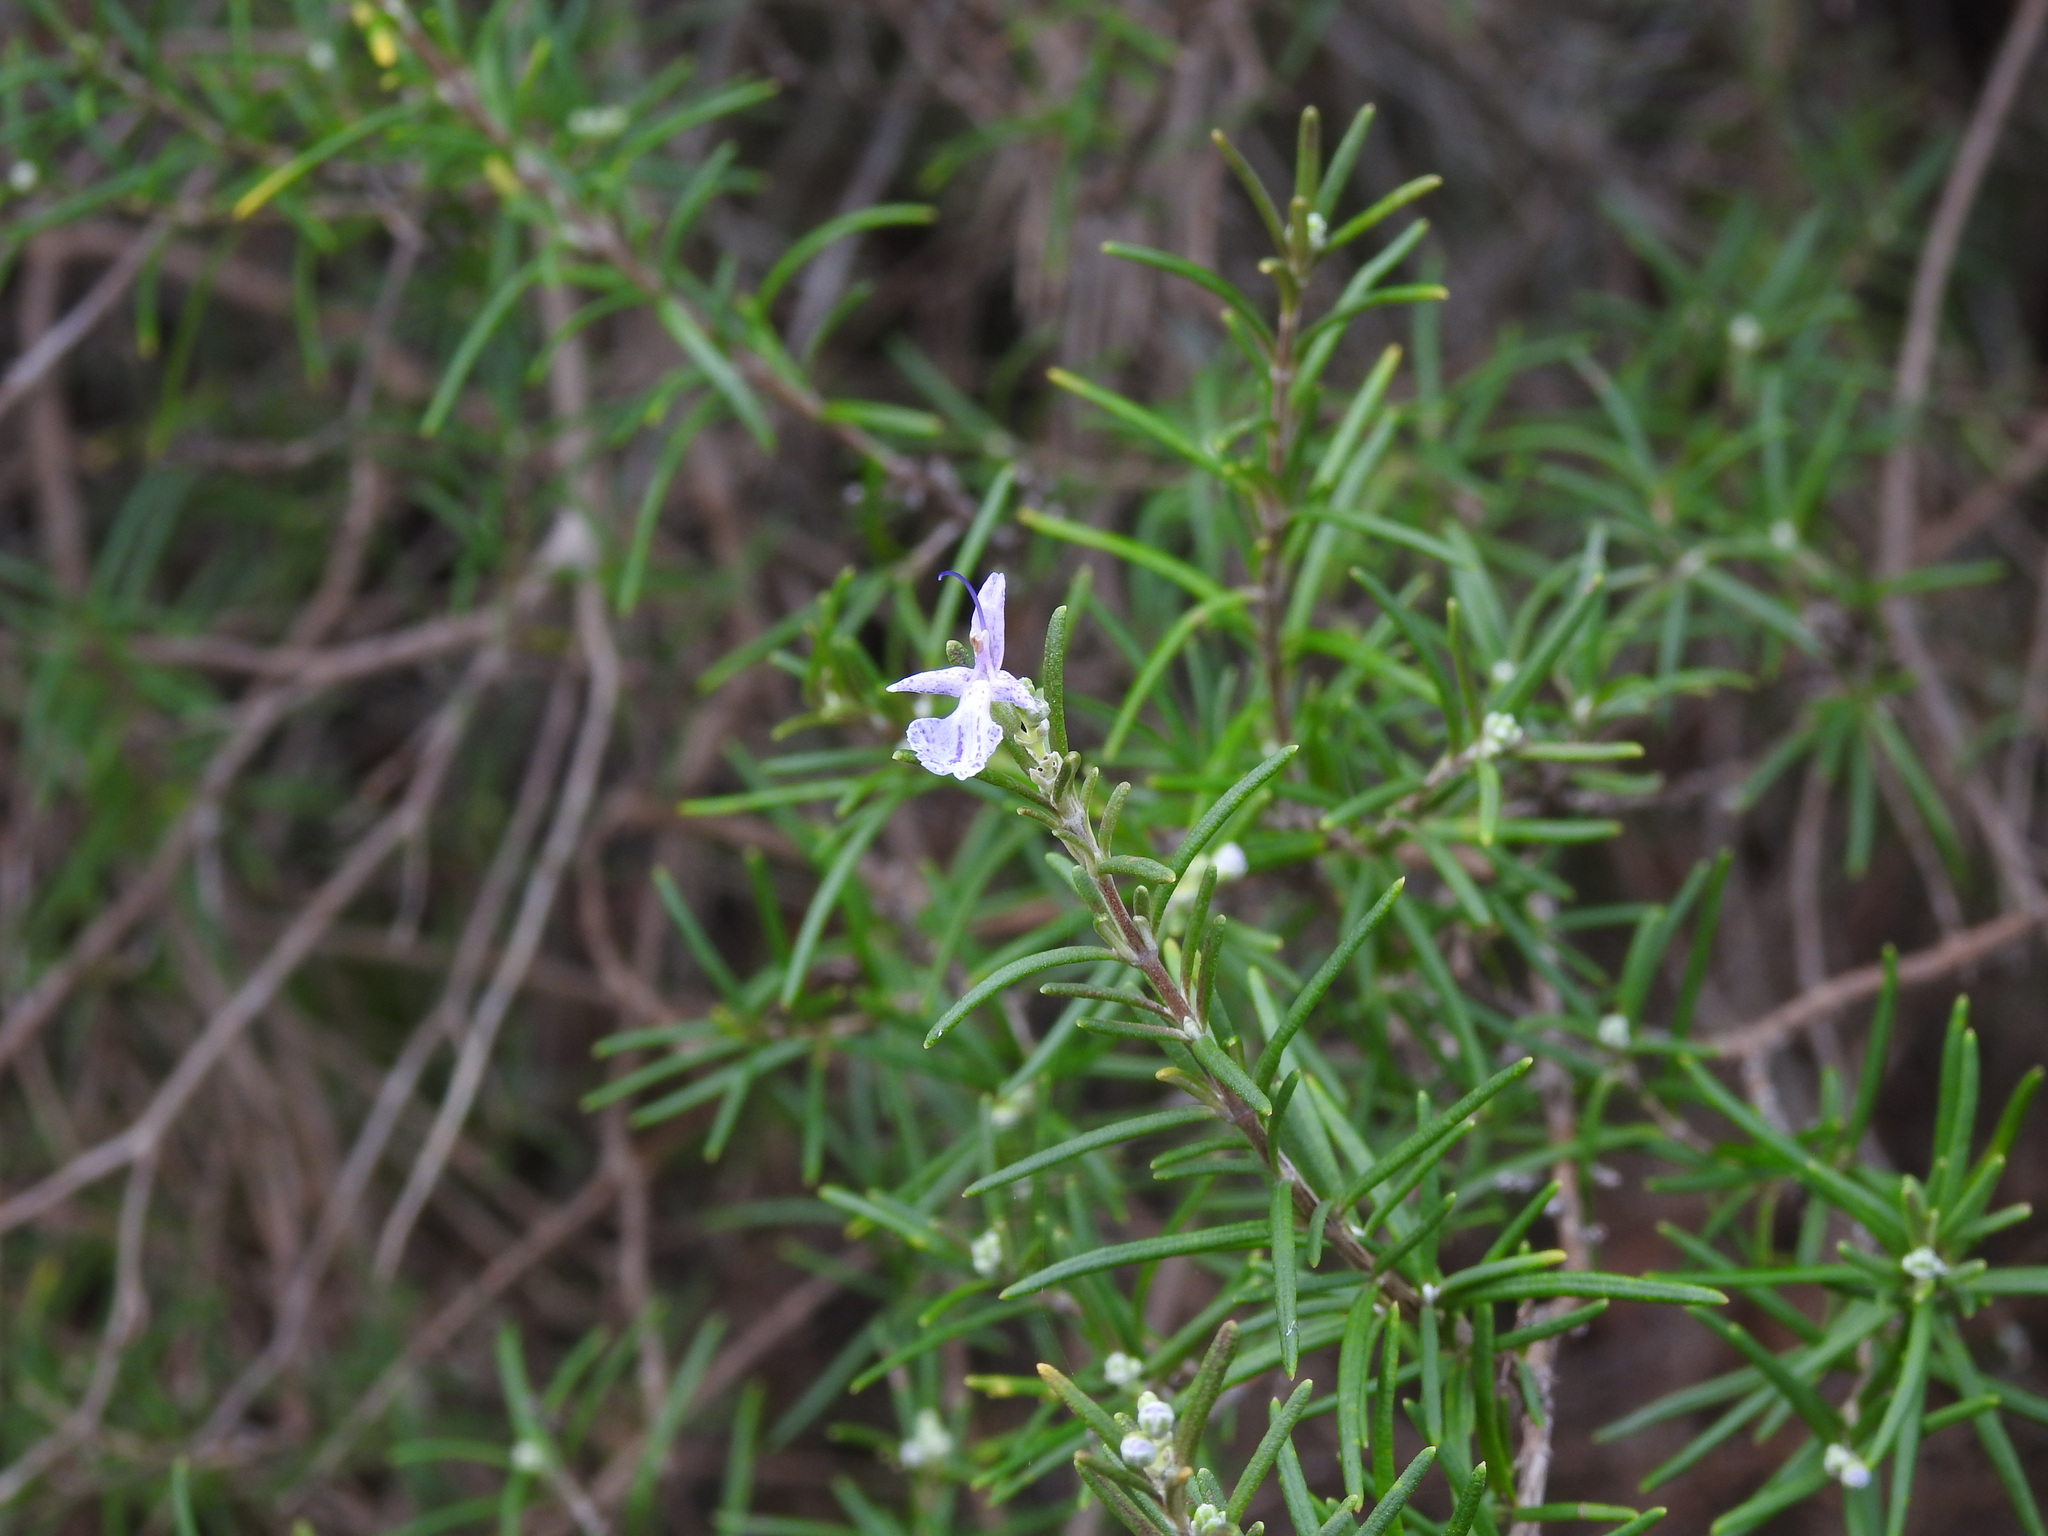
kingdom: Plantae
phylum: Tracheophyta
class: Magnoliopsida
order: Lamiales
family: Lamiaceae
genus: Salvia
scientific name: Salvia rosmarinus
